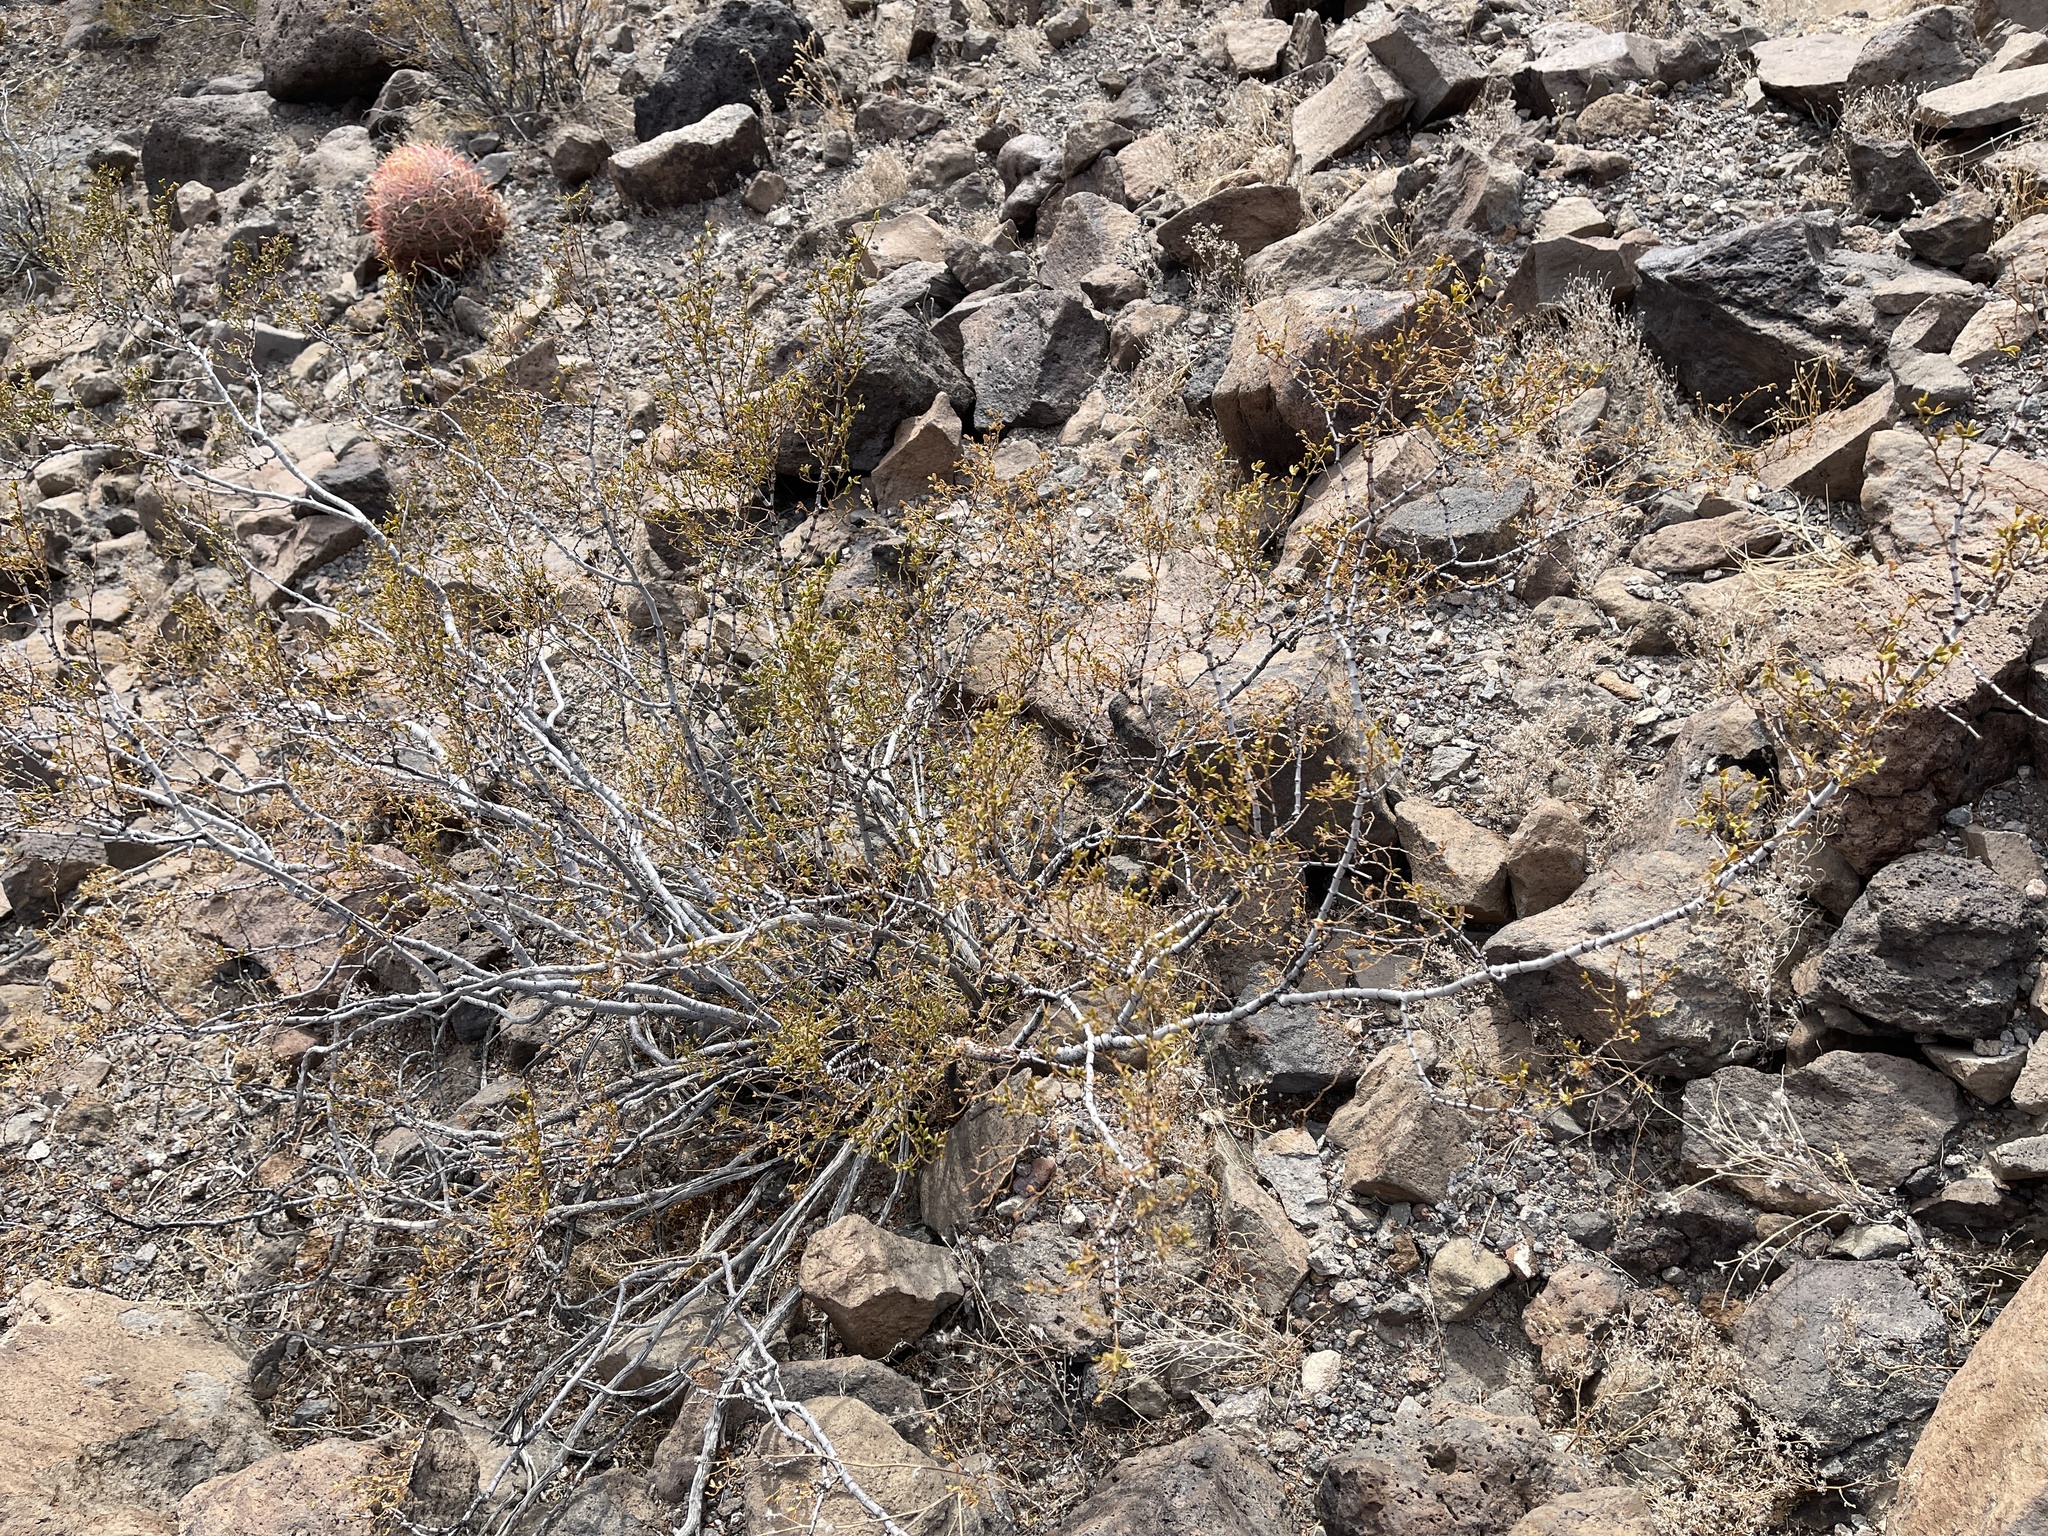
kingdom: Plantae
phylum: Tracheophyta
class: Magnoliopsida
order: Zygophyllales
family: Zygophyllaceae
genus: Larrea
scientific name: Larrea tridentata
